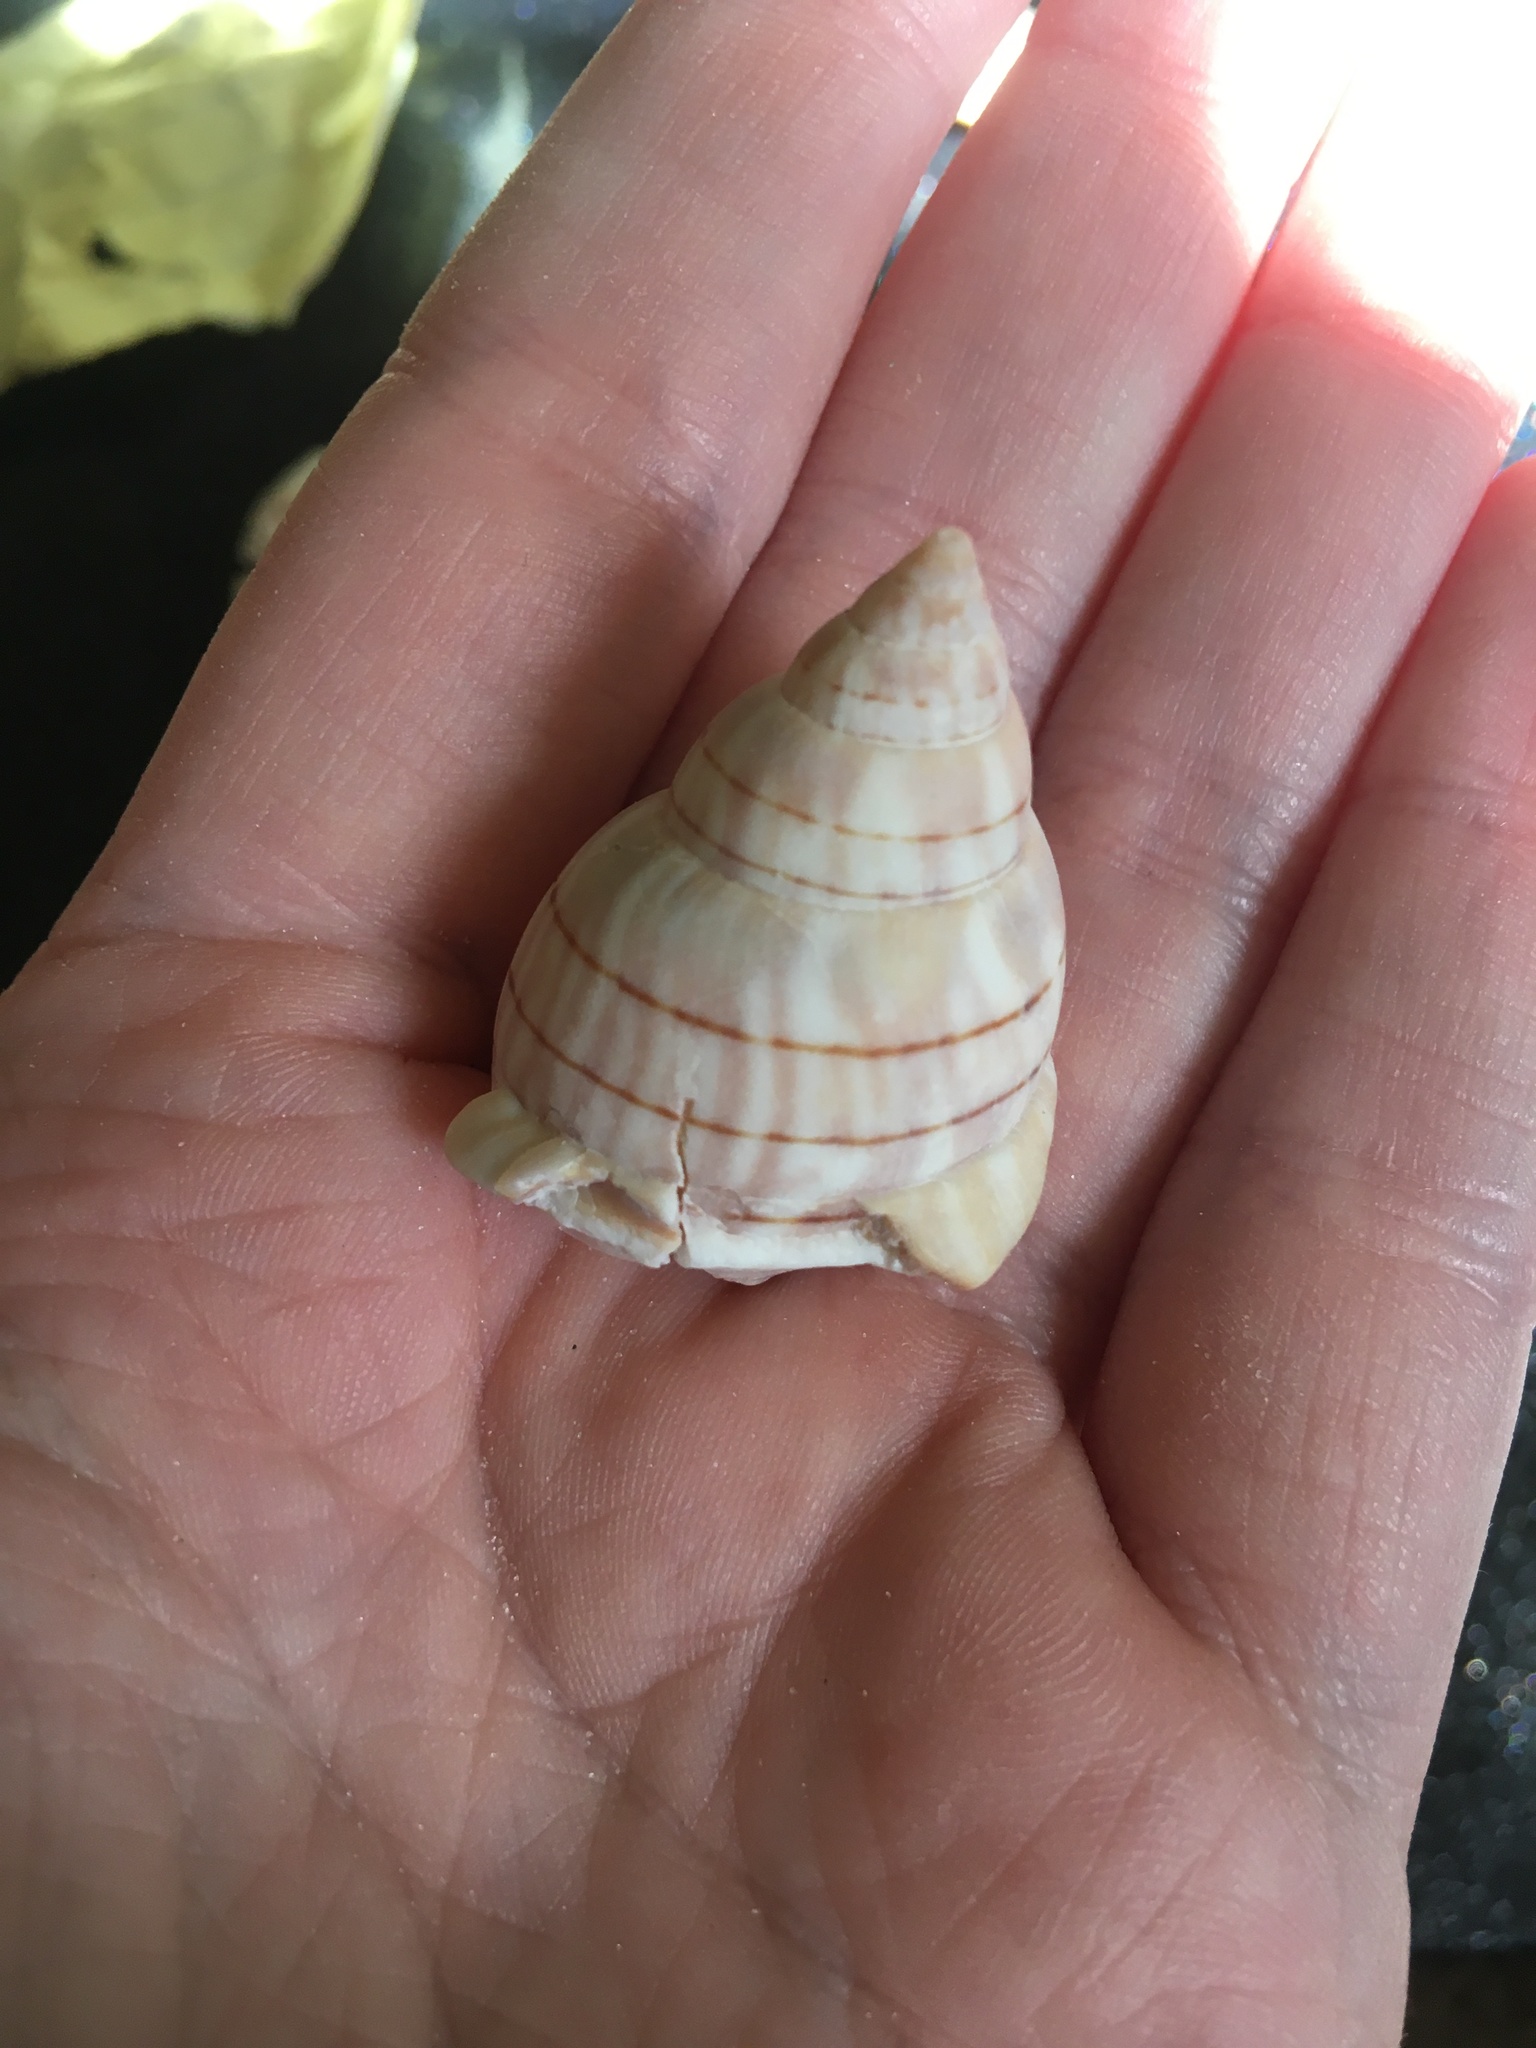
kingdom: Animalia
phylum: Mollusca
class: Gastropoda
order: Neogastropoda
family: Fasciolariidae
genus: Cinctura
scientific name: Cinctura hunteria
